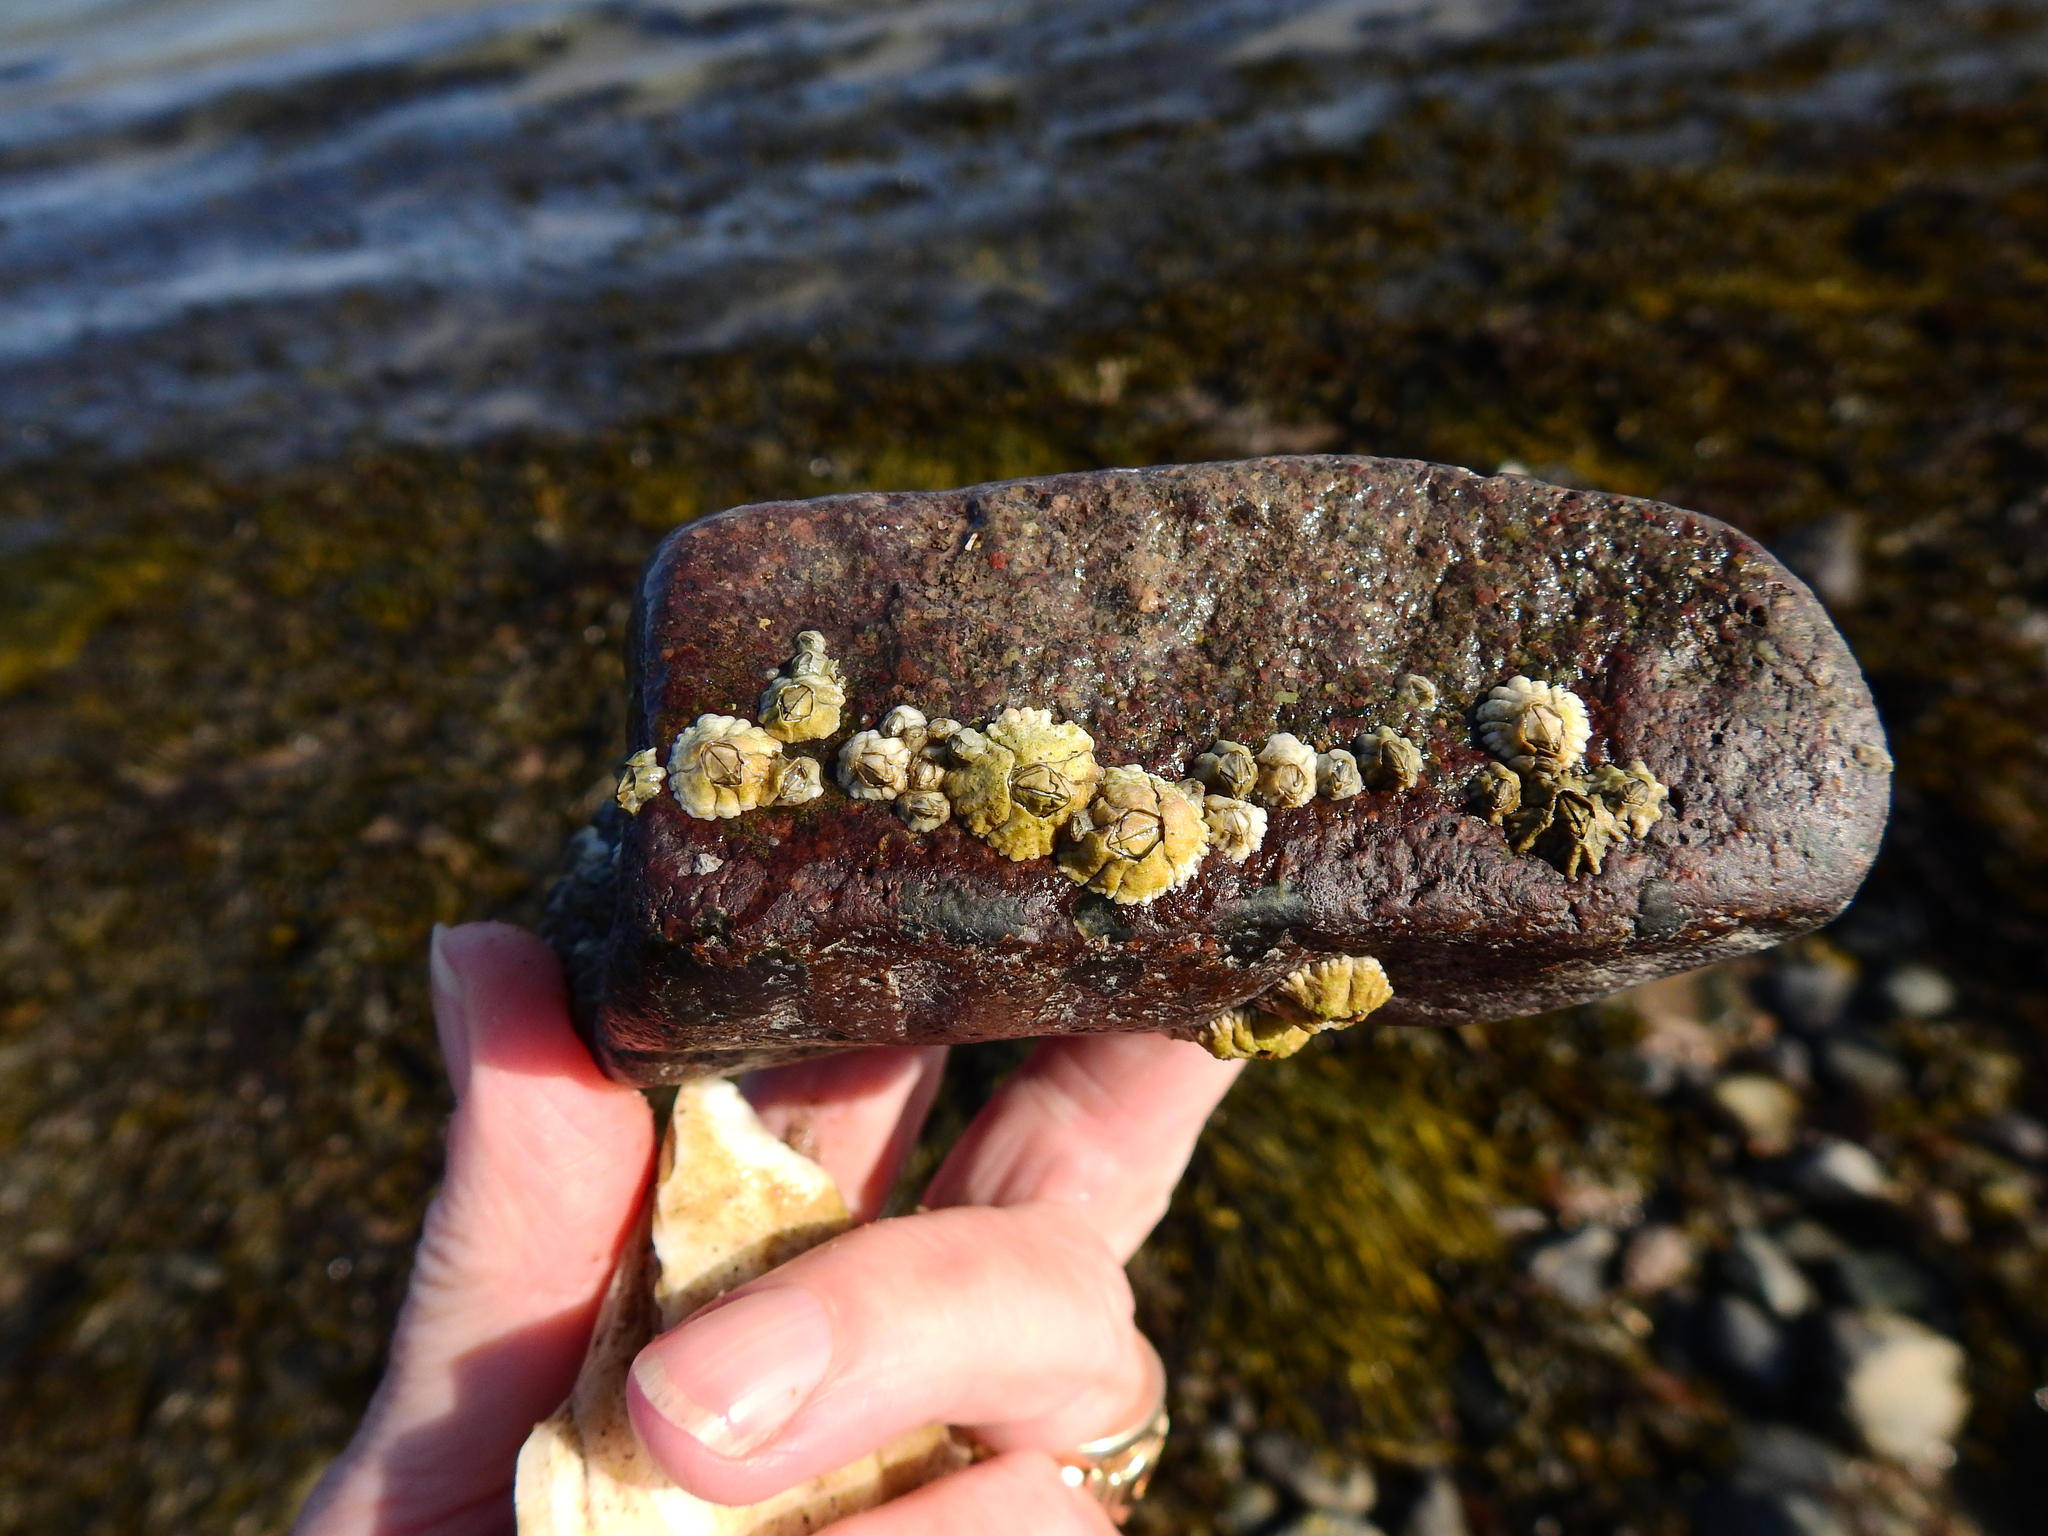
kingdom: Animalia
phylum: Arthropoda
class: Maxillopoda
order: Sessilia
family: Archaeobalanidae
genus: Semibalanus
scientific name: Semibalanus balanoides
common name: Acorn barnacle
